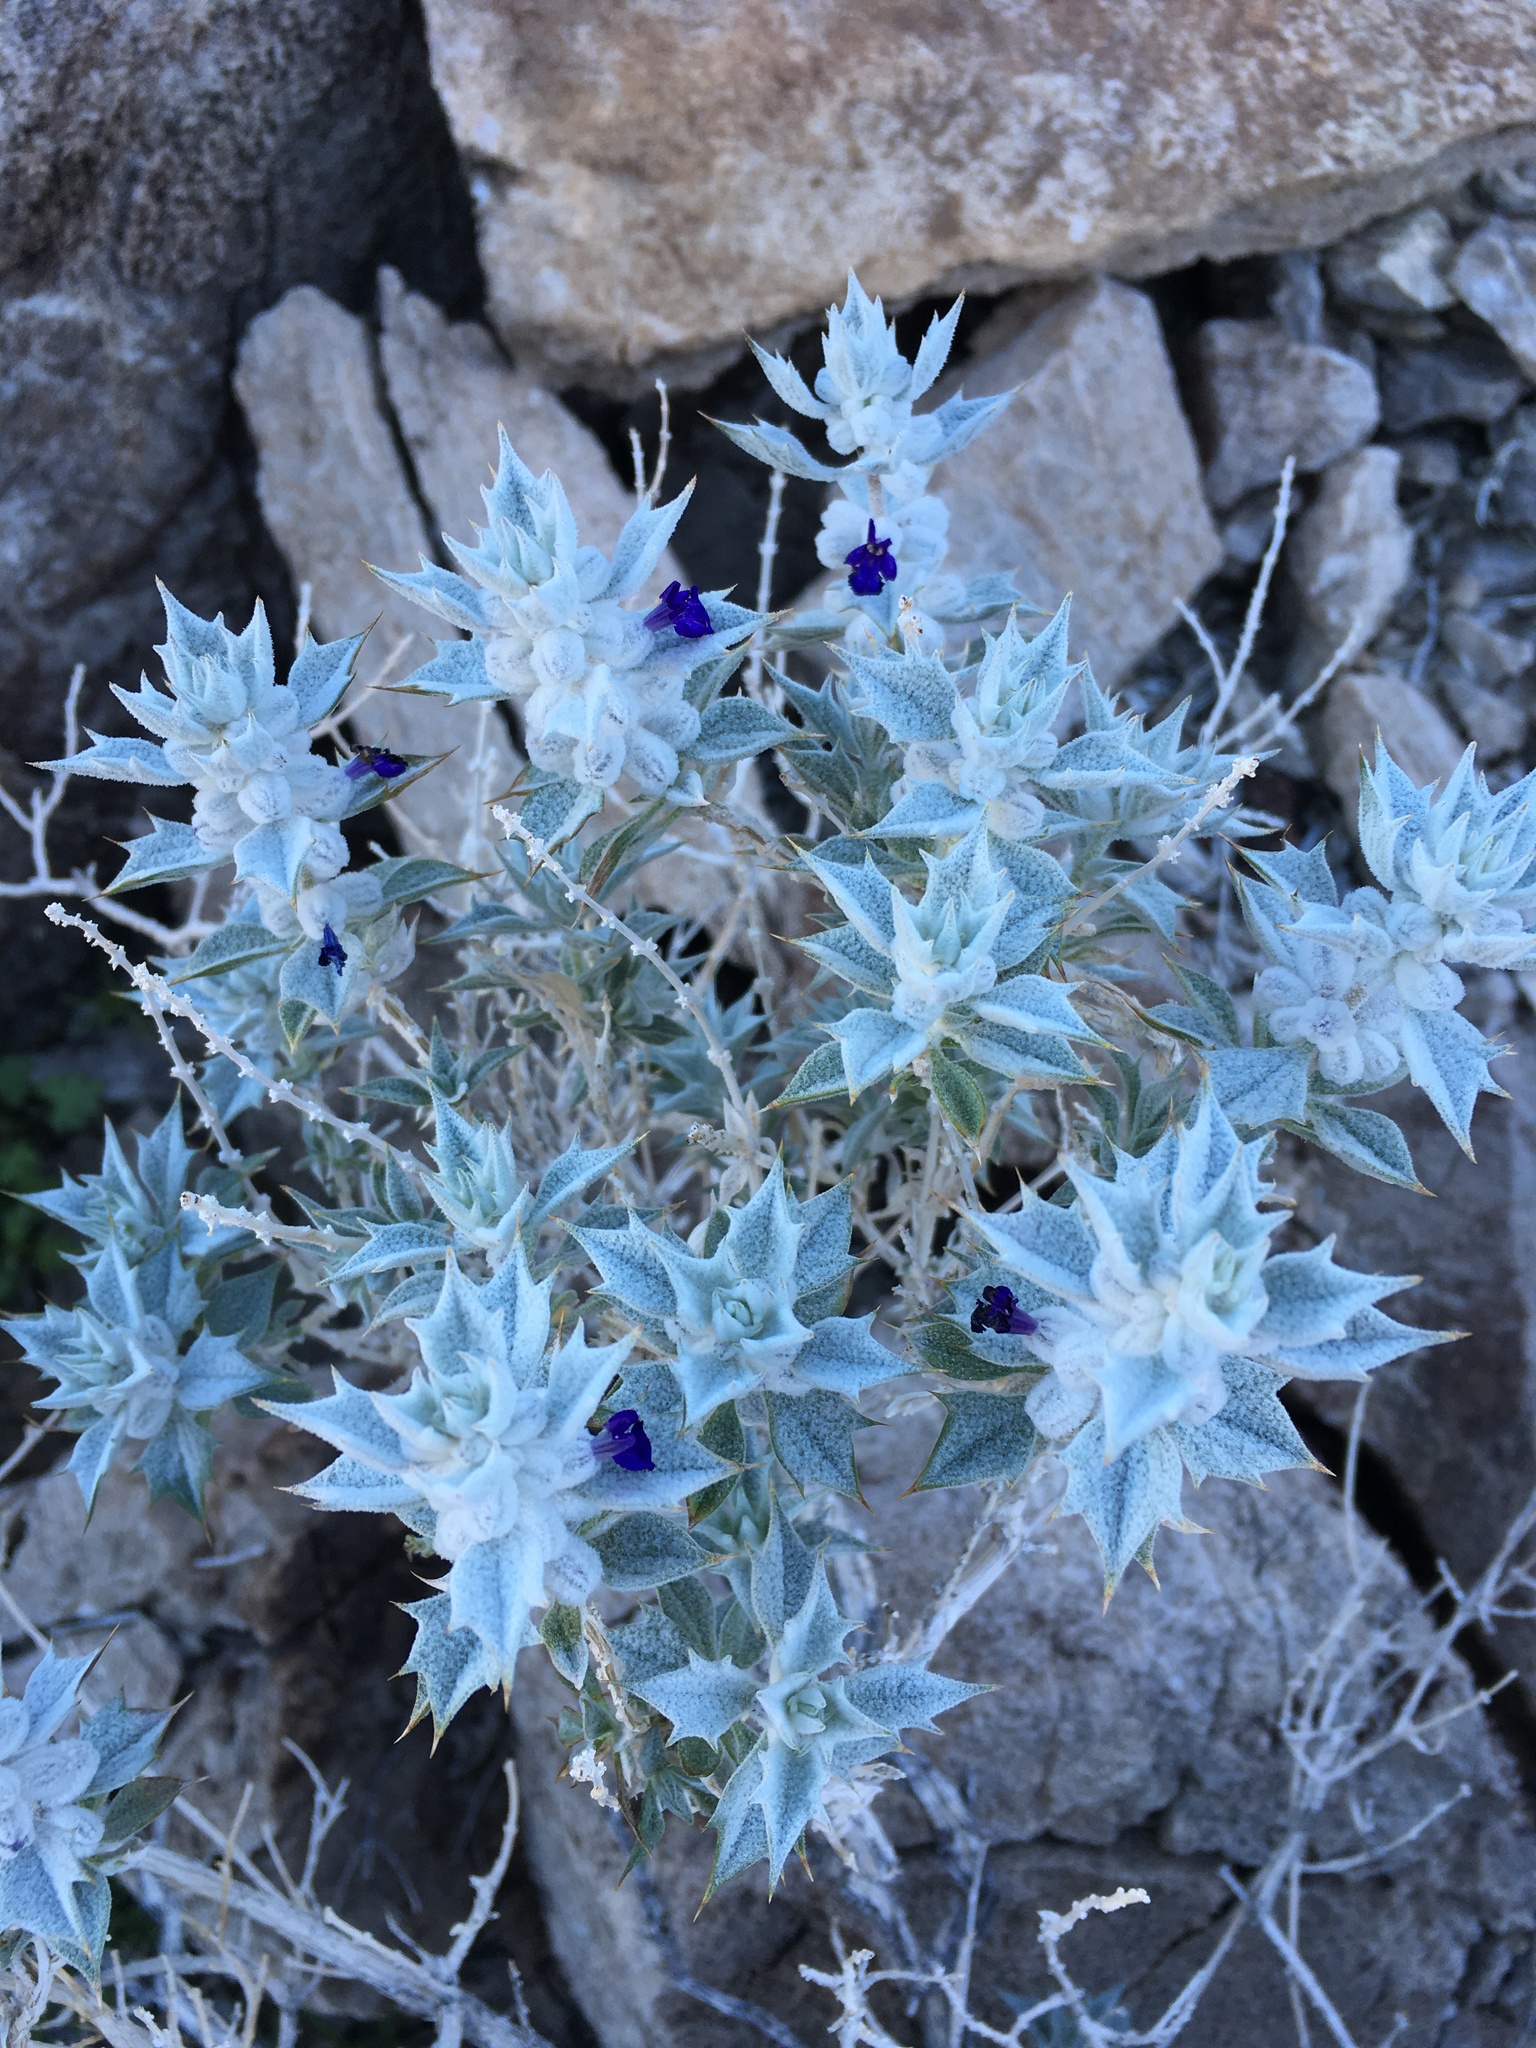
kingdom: Plantae
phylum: Tracheophyta
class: Magnoliopsida
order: Lamiales
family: Lamiaceae
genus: Salvia
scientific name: Salvia funerea
